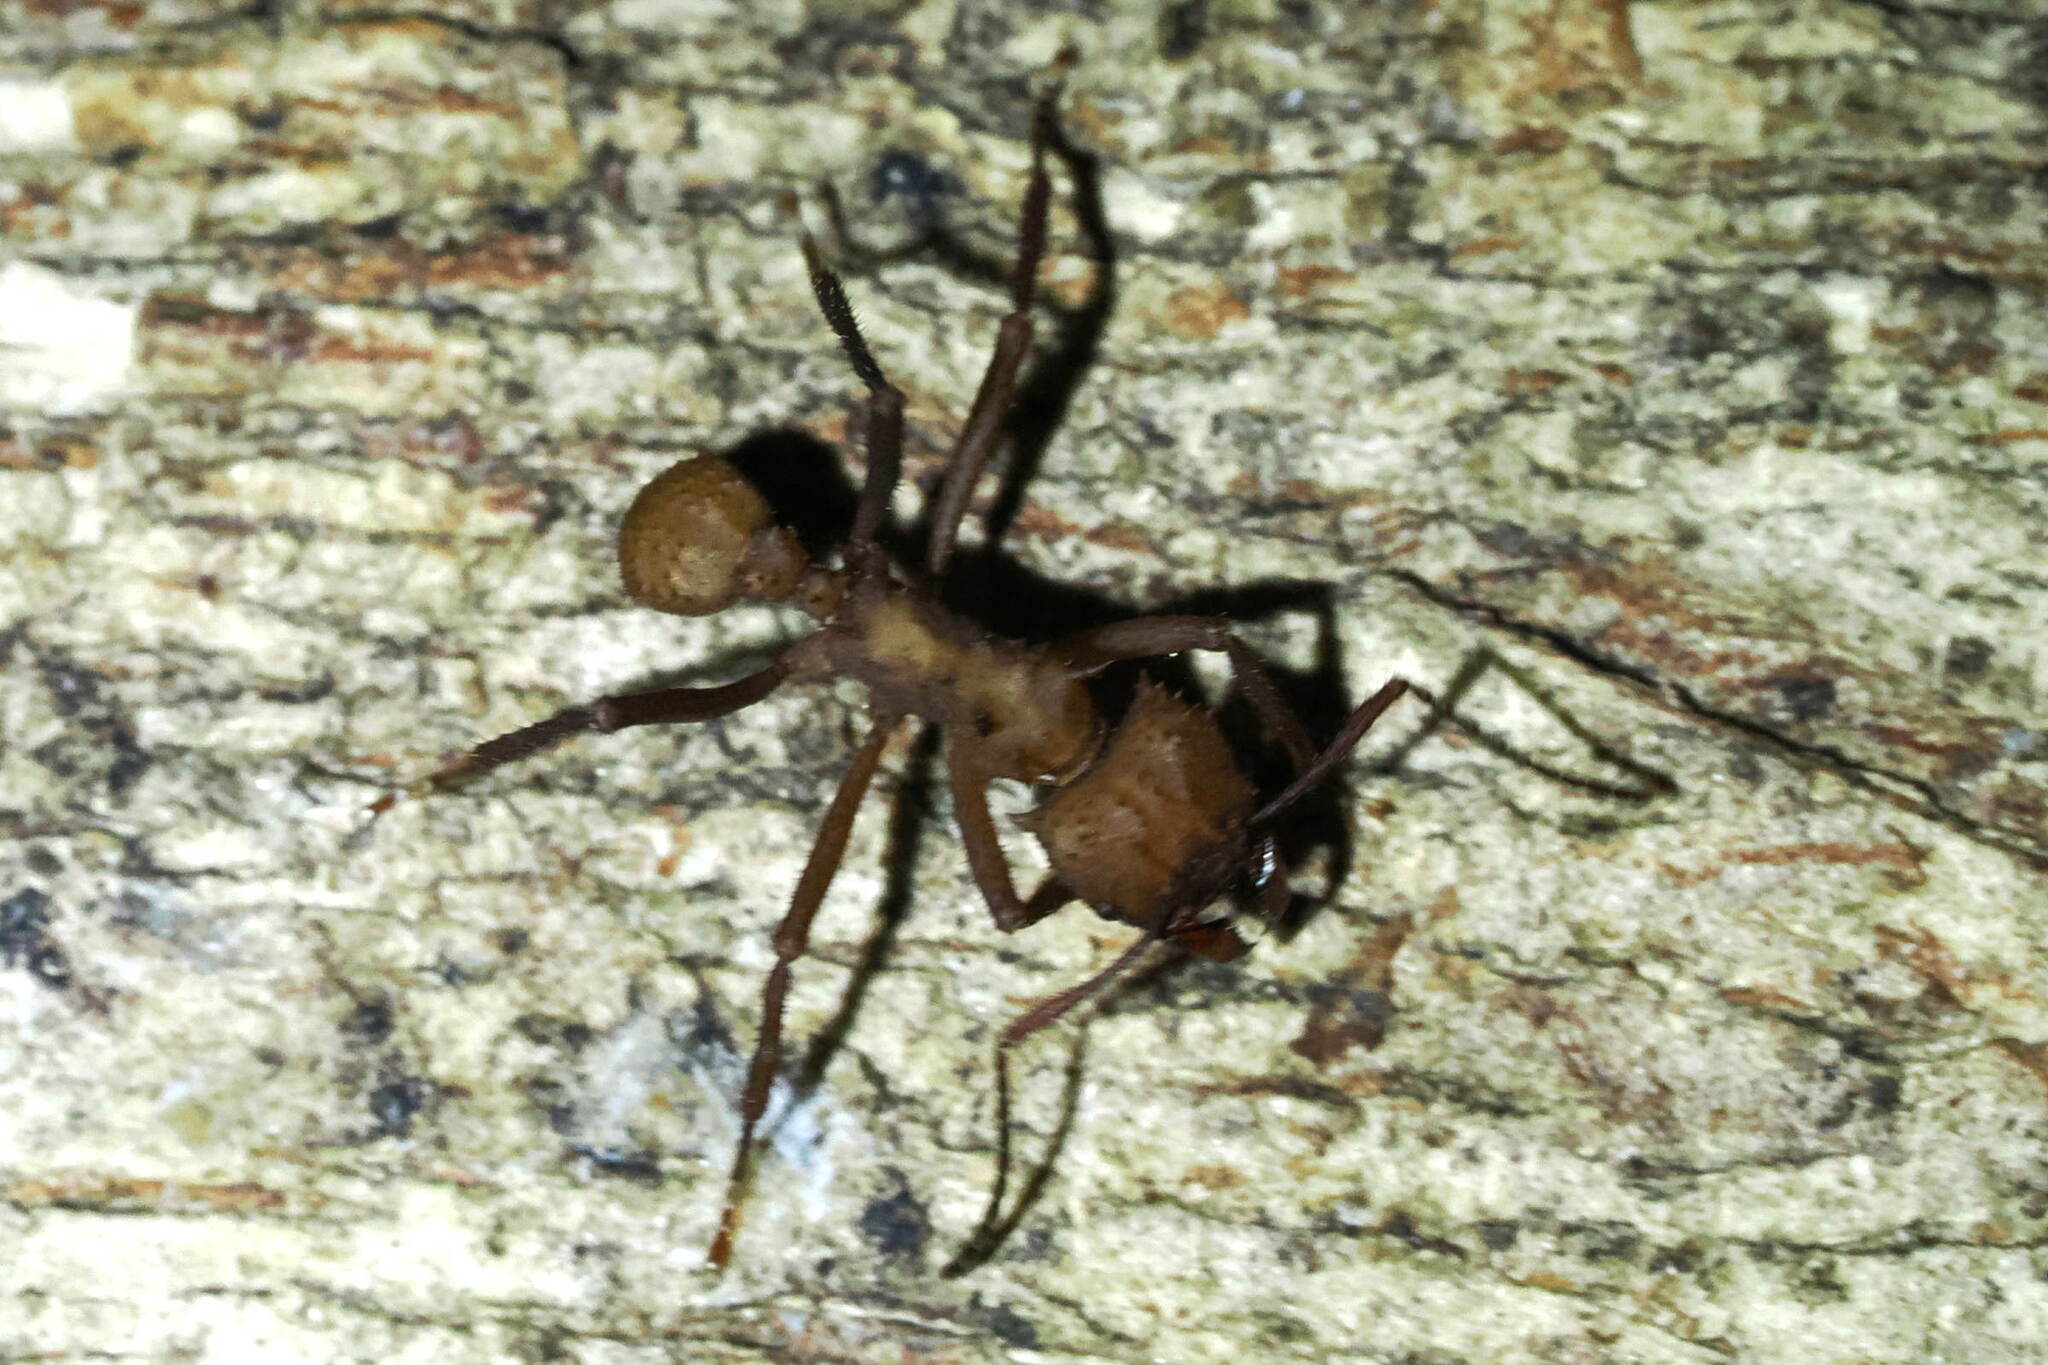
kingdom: Animalia
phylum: Arthropoda
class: Insecta
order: Hymenoptera
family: Formicidae
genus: Acromyrmex
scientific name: Acromyrmex octospinosus
